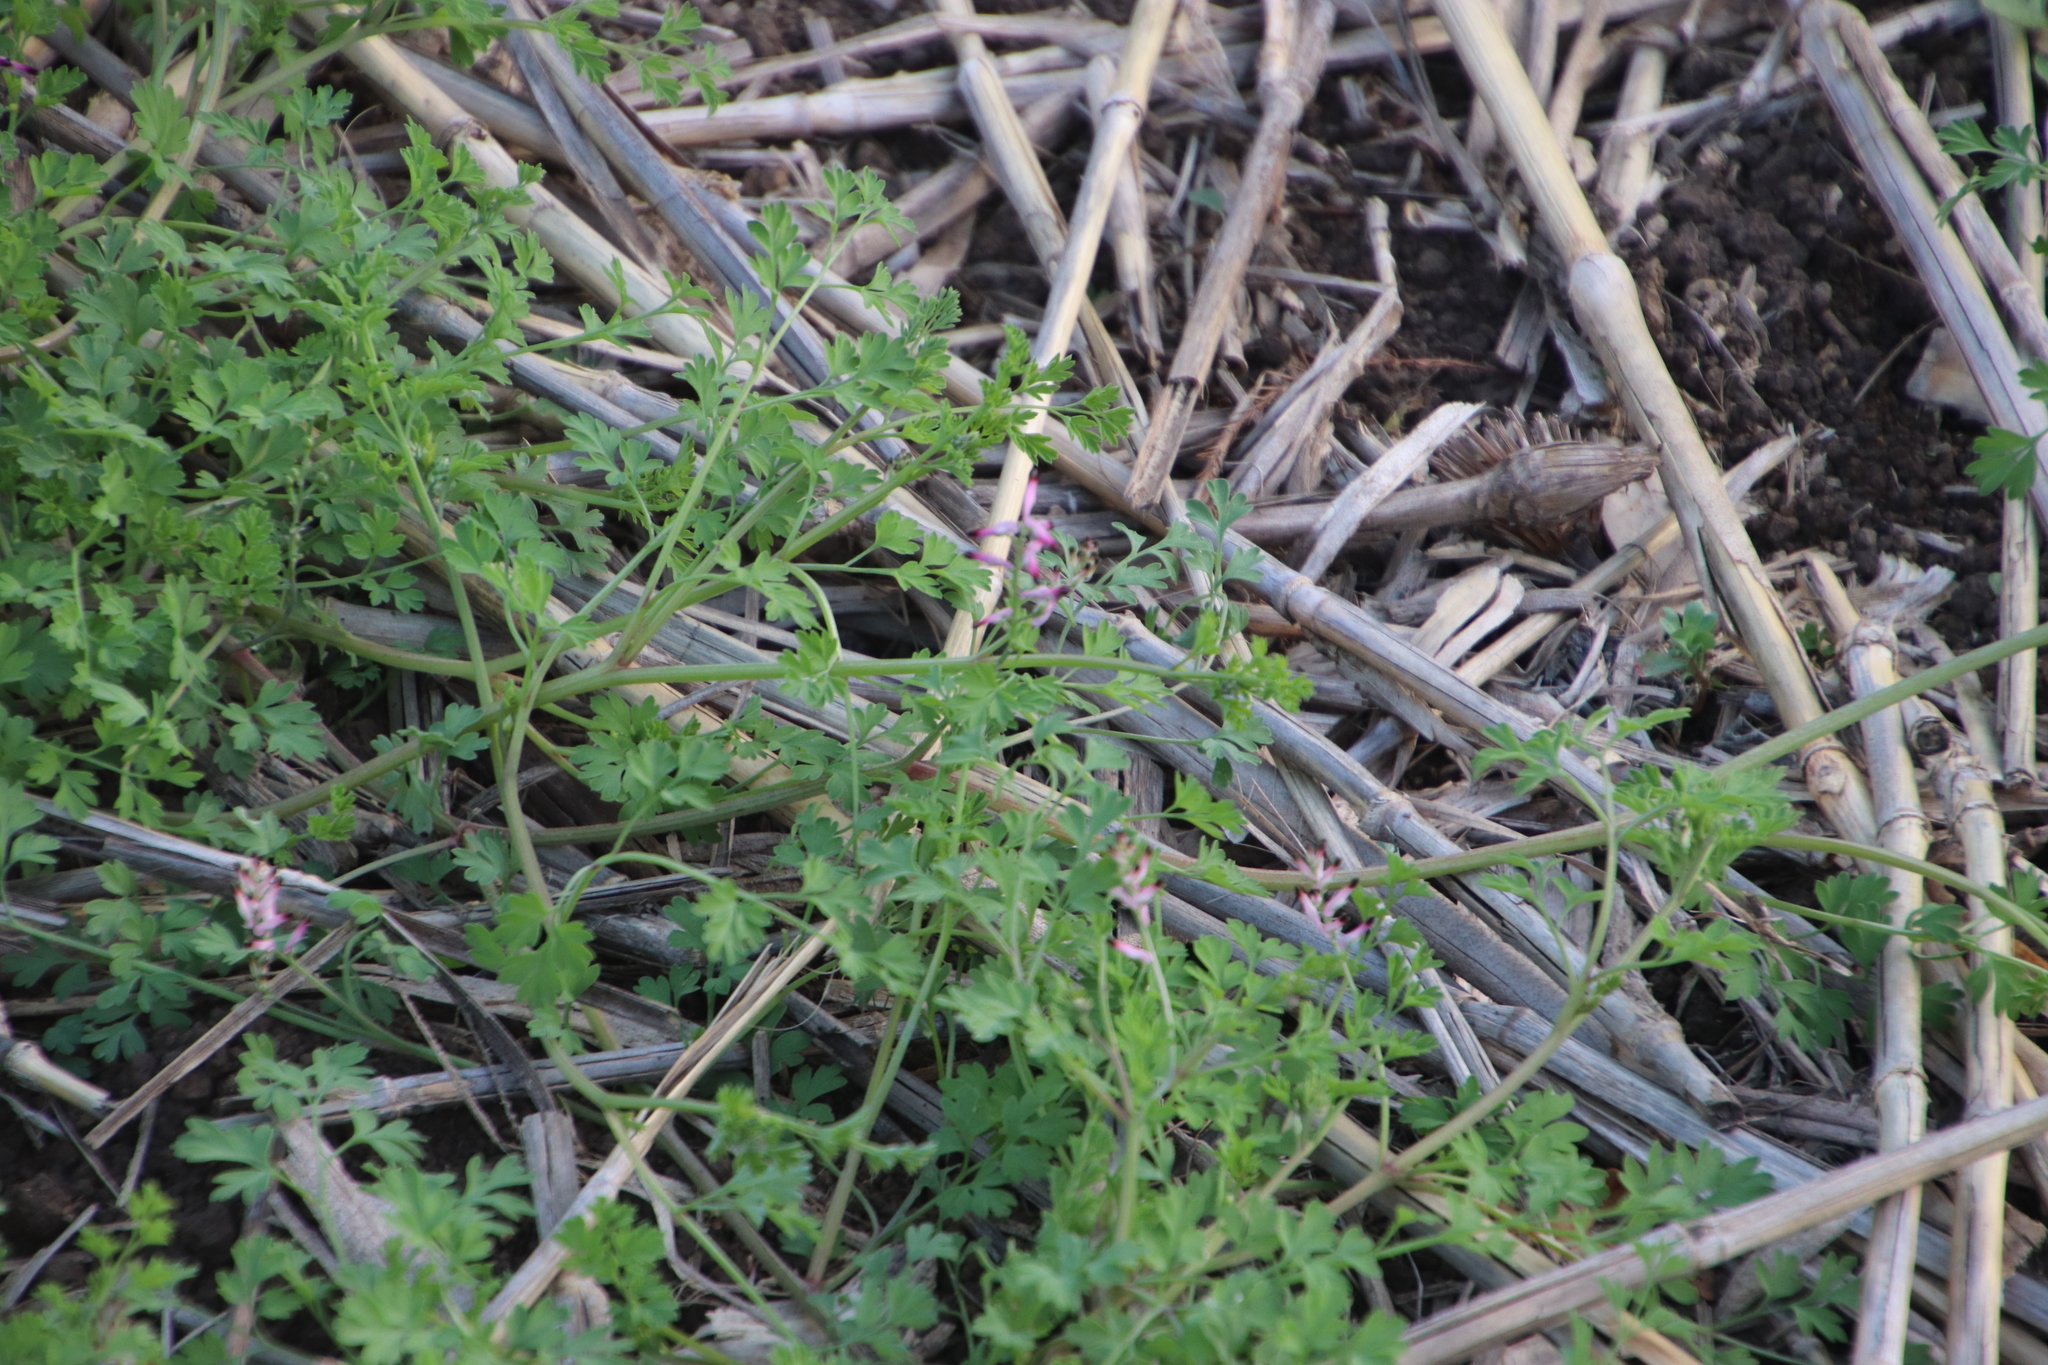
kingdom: Plantae
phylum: Tracheophyta
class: Magnoliopsida
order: Ranunculales
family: Papaveraceae
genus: Fumaria
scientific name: Fumaria muralis
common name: Common ramping-fumitory
